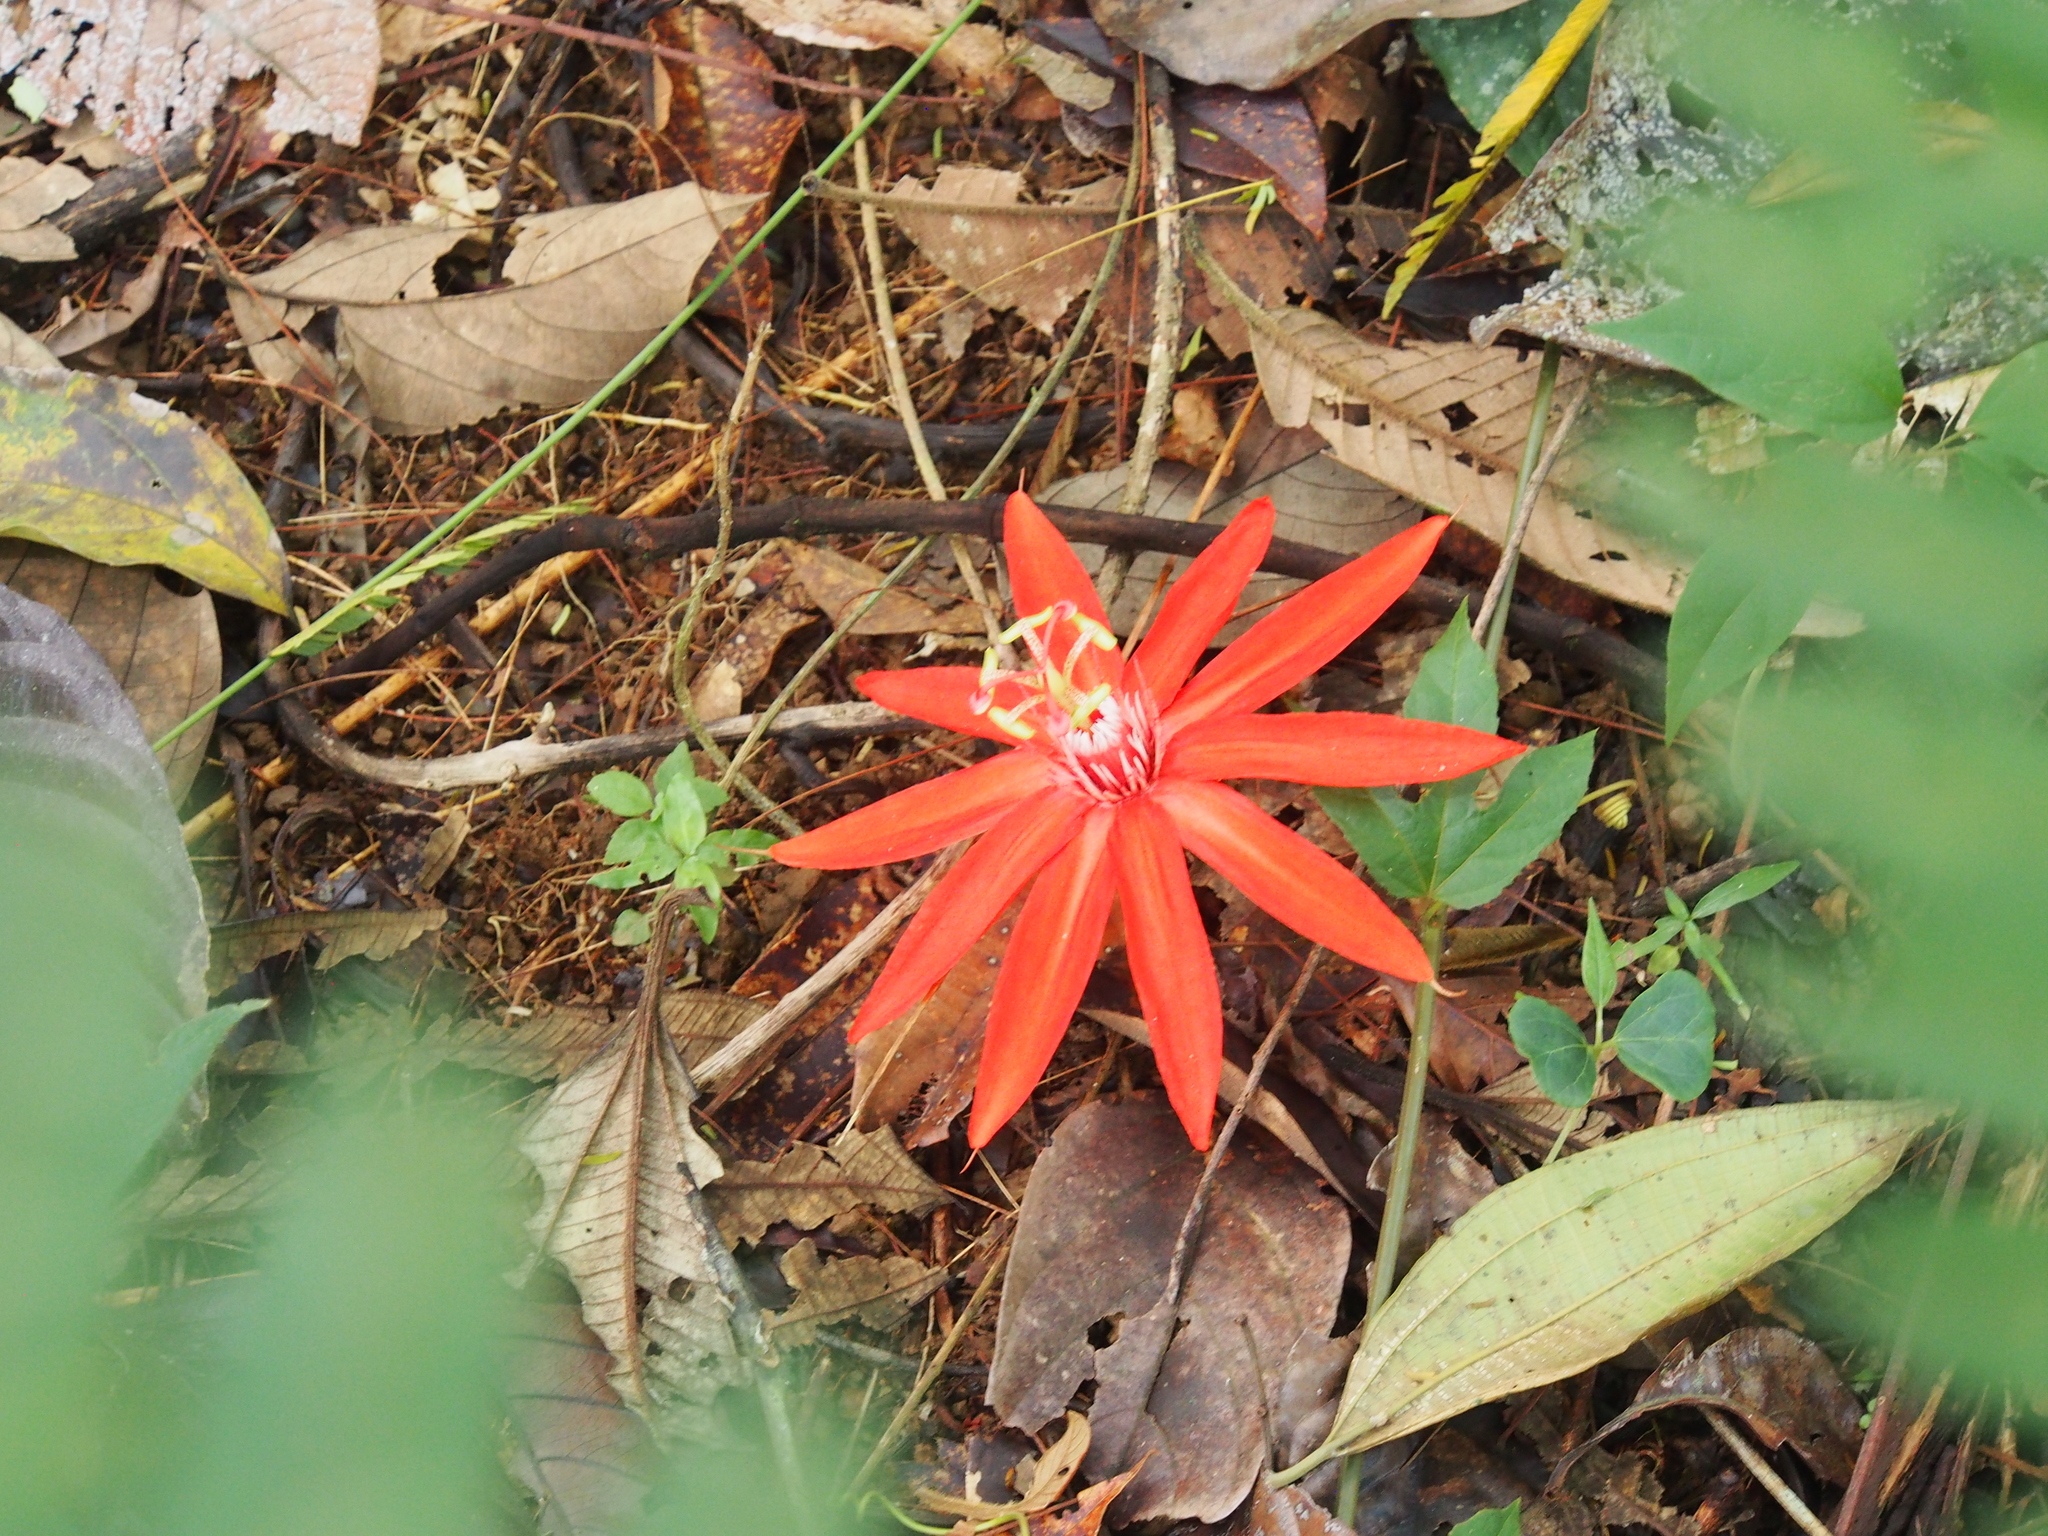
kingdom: Plantae
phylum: Tracheophyta
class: Magnoliopsida
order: Malpighiales
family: Passifloraceae
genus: Passiflora
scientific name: Passiflora vitifolia
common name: Perfumed passionflower
